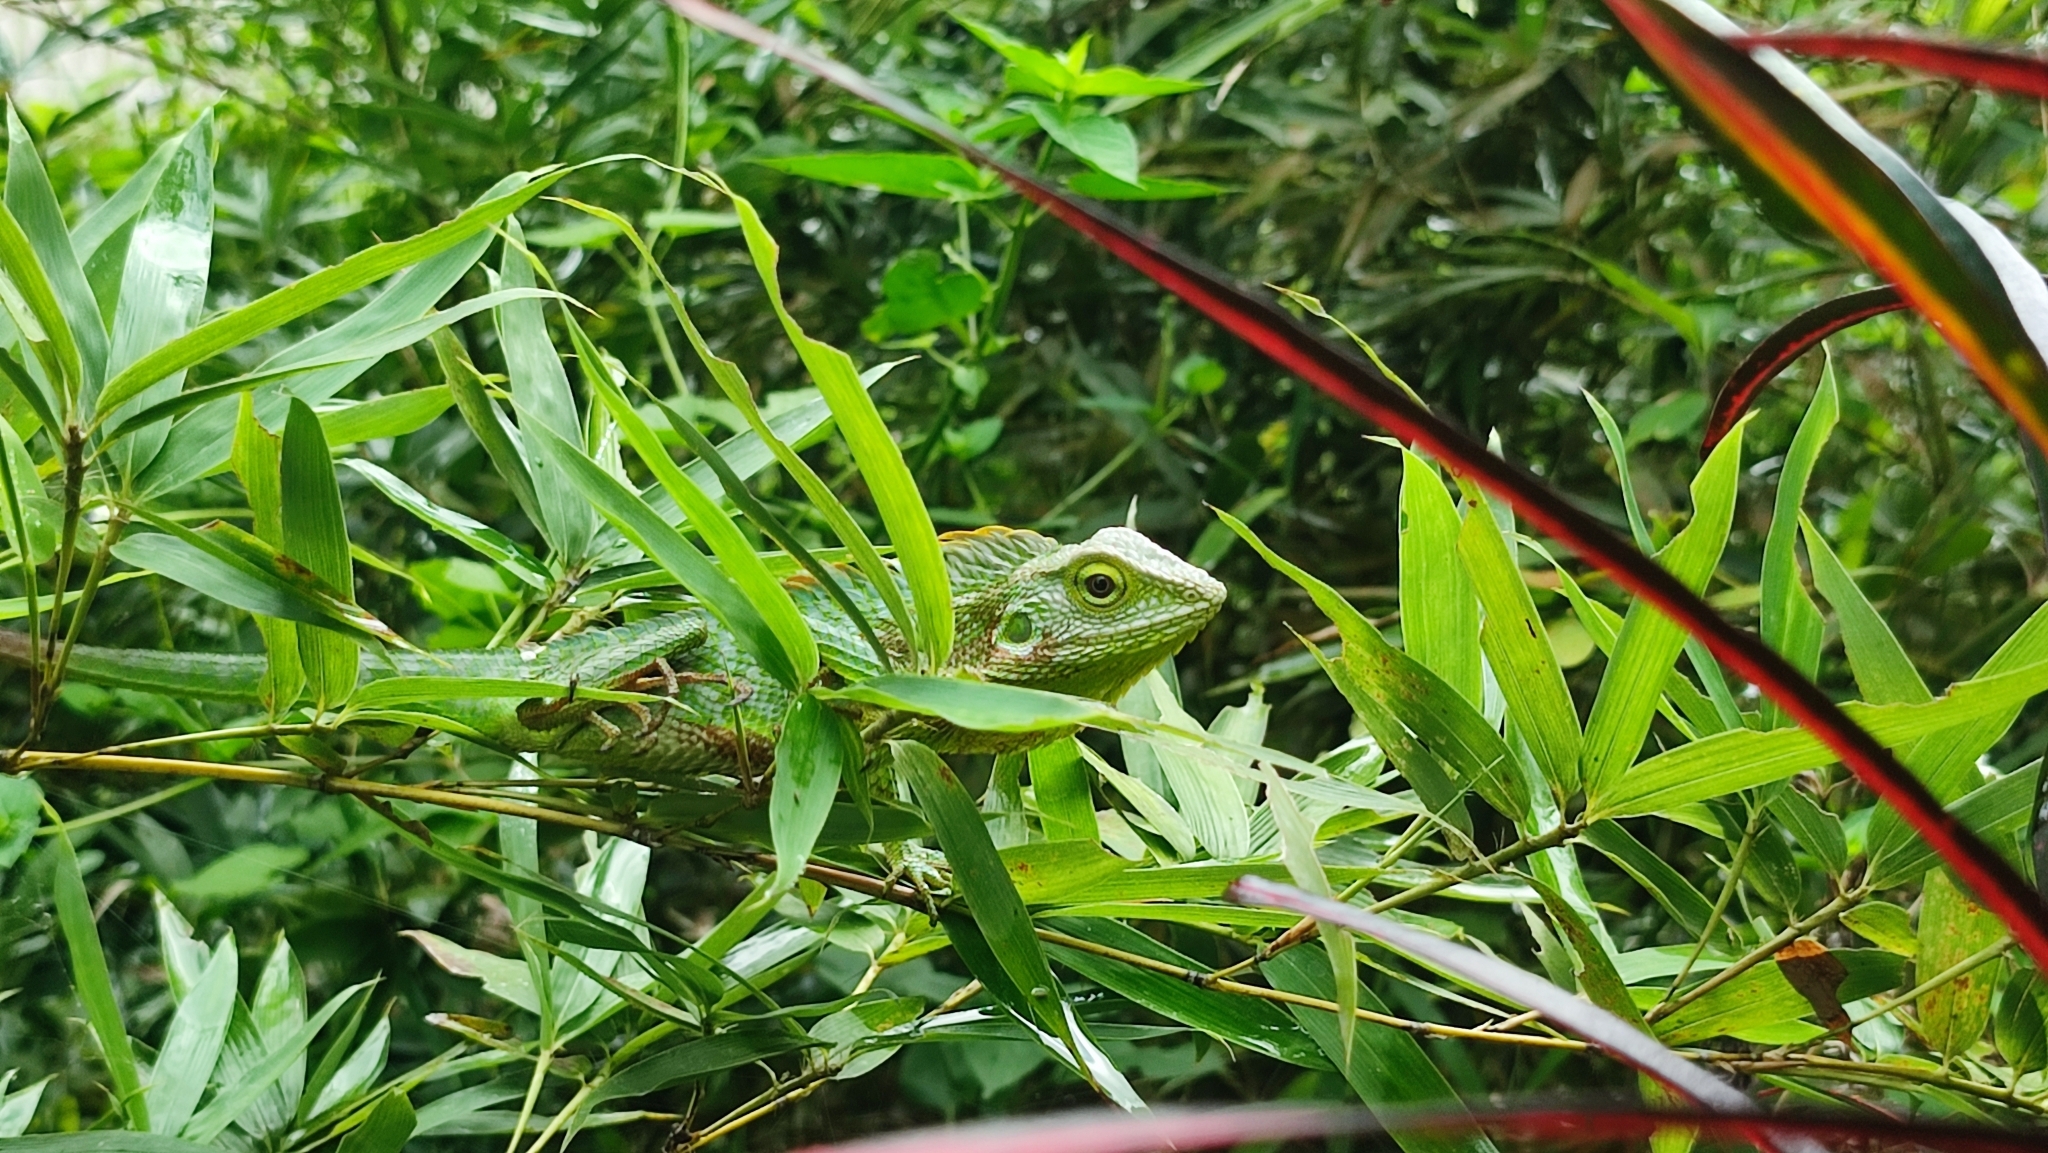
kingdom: Animalia
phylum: Chordata
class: Squamata
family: Agamidae
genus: Bronchocela
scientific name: Bronchocela jubata
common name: Maned forest lizard
